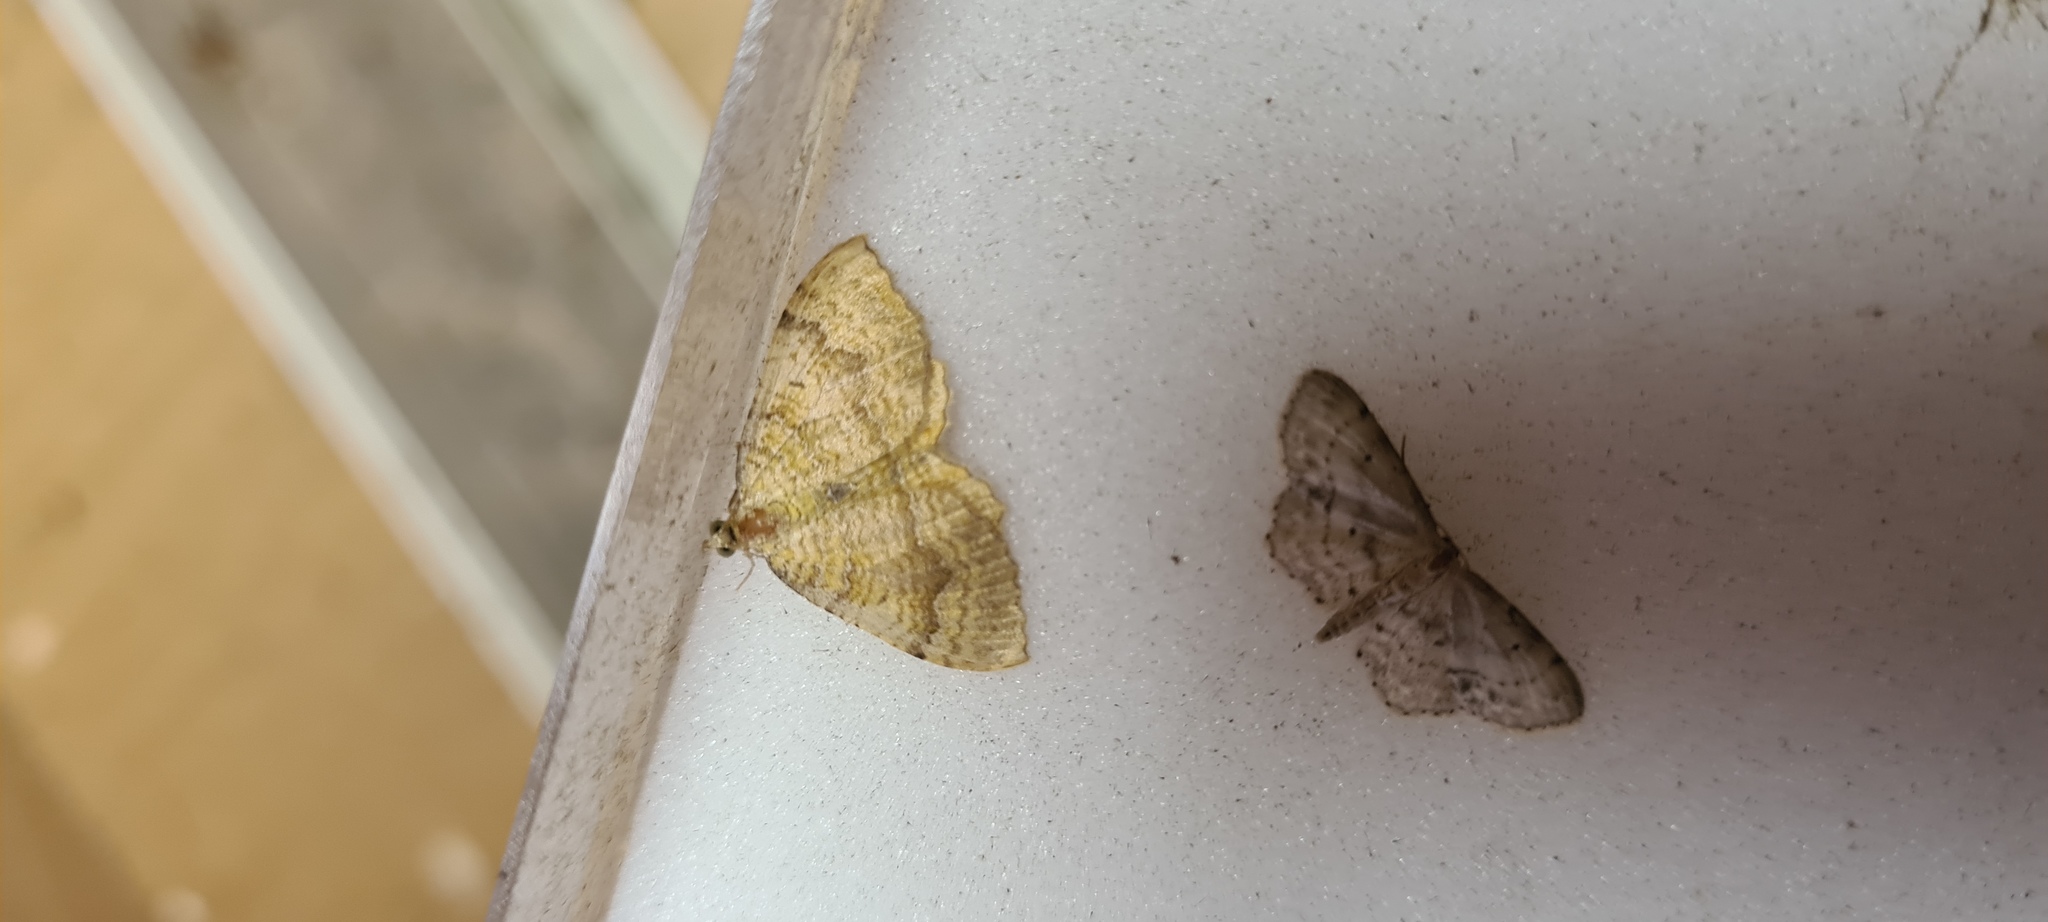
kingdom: Animalia
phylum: Arthropoda
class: Insecta
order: Lepidoptera
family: Geometridae
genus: Camptogramma
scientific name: Camptogramma bilineata
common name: Yellow shell
